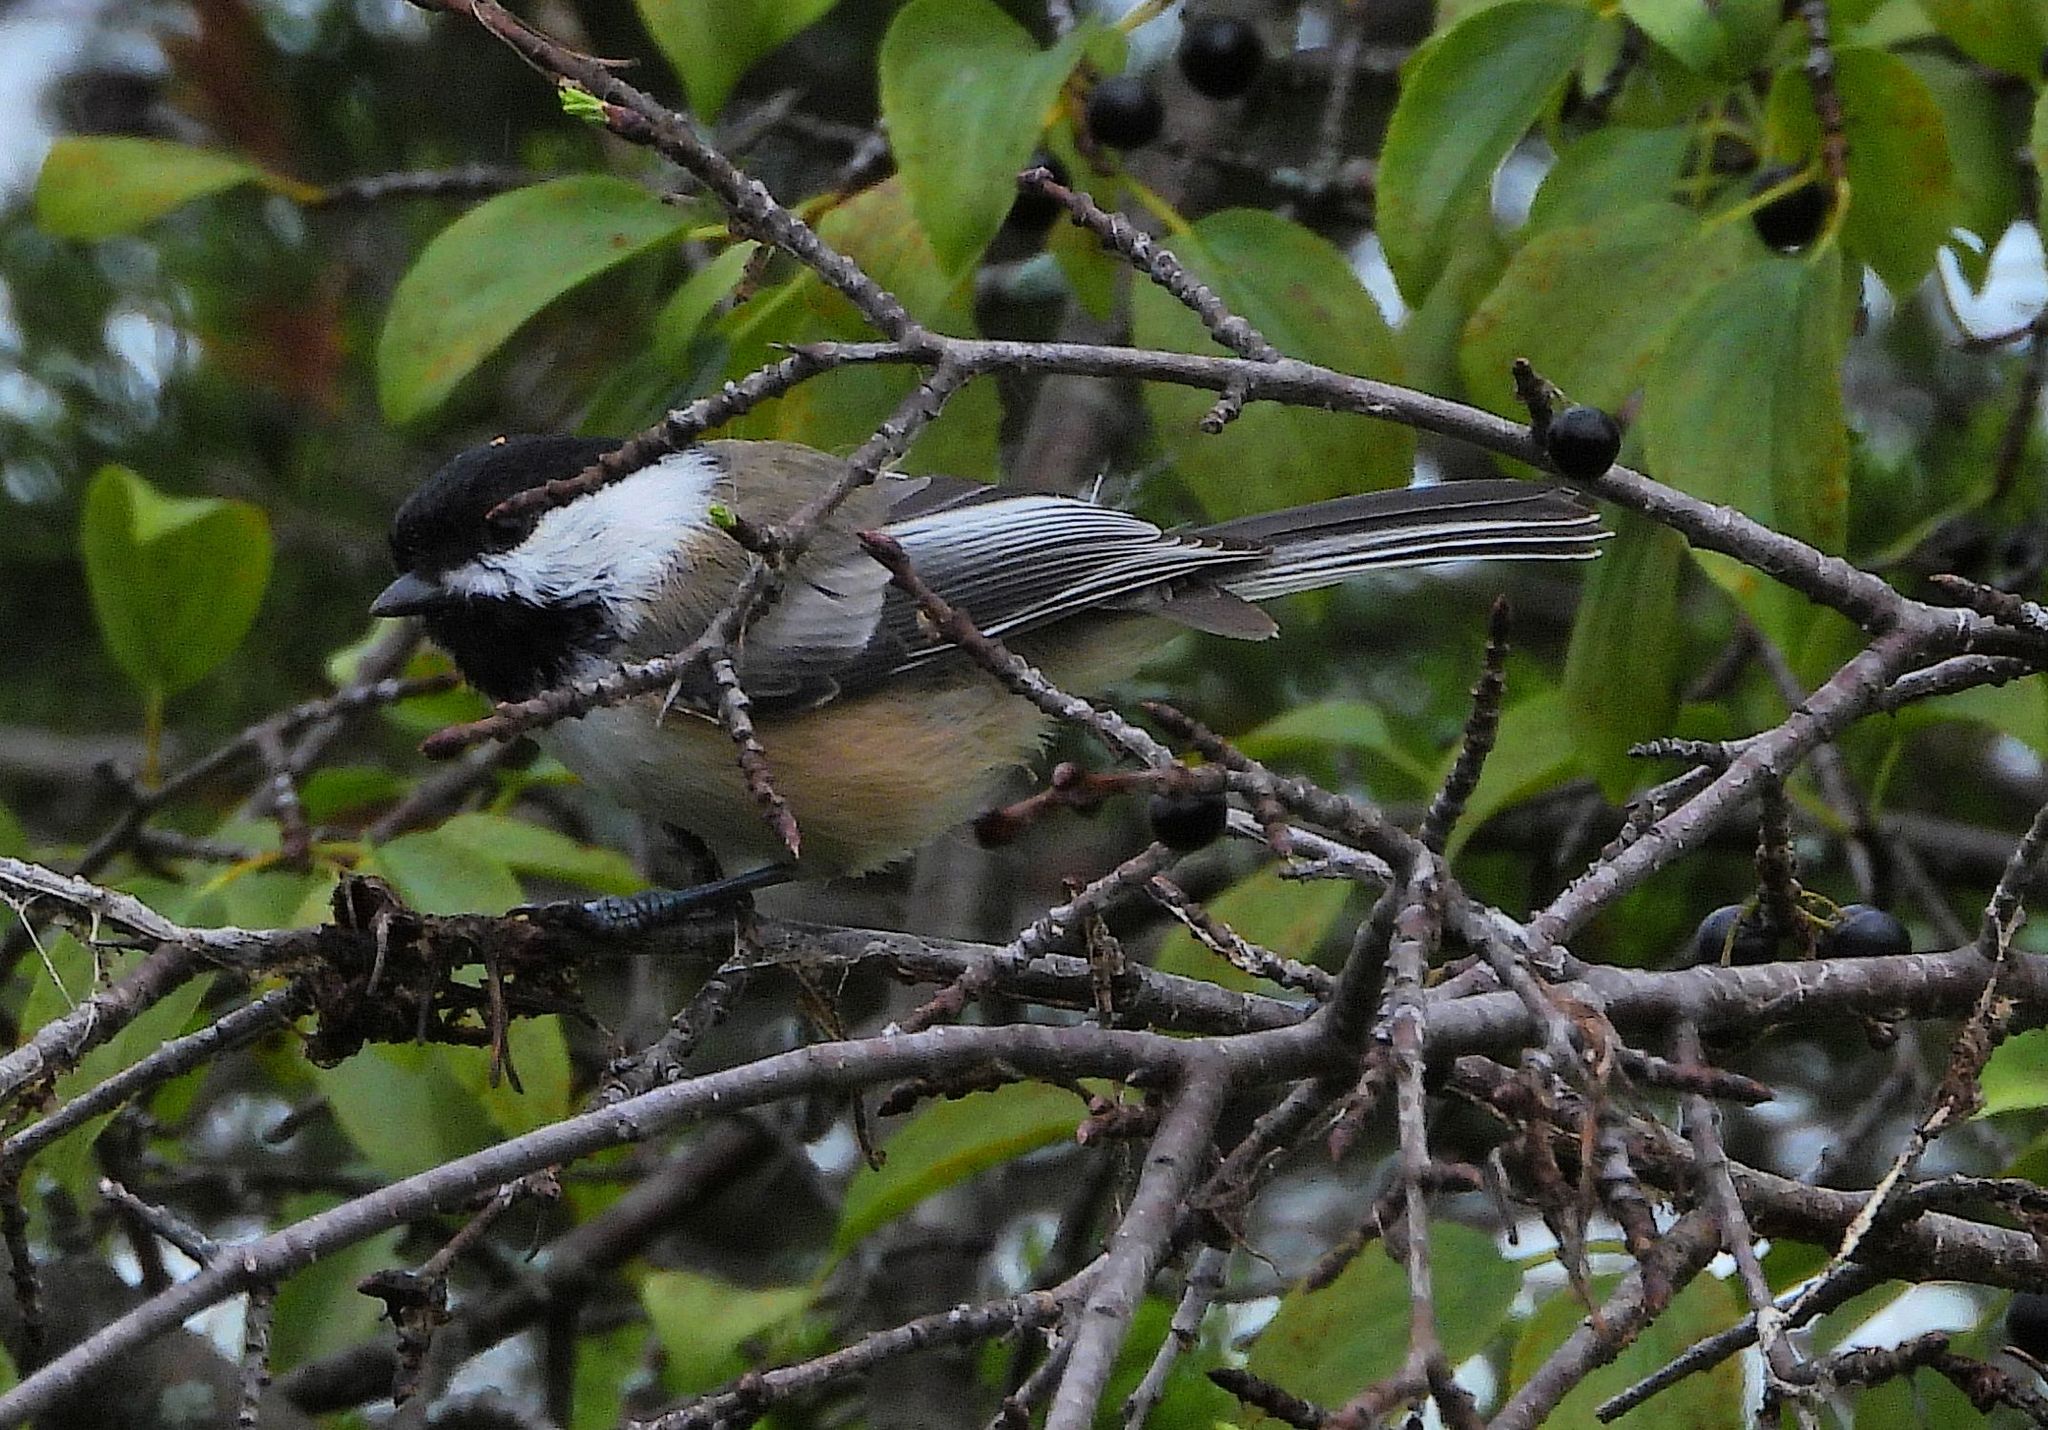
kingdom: Animalia
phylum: Chordata
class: Aves
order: Passeriformes
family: Paridae
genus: Poecile
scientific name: Poecile atricapillus
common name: Black-capped chickadee
